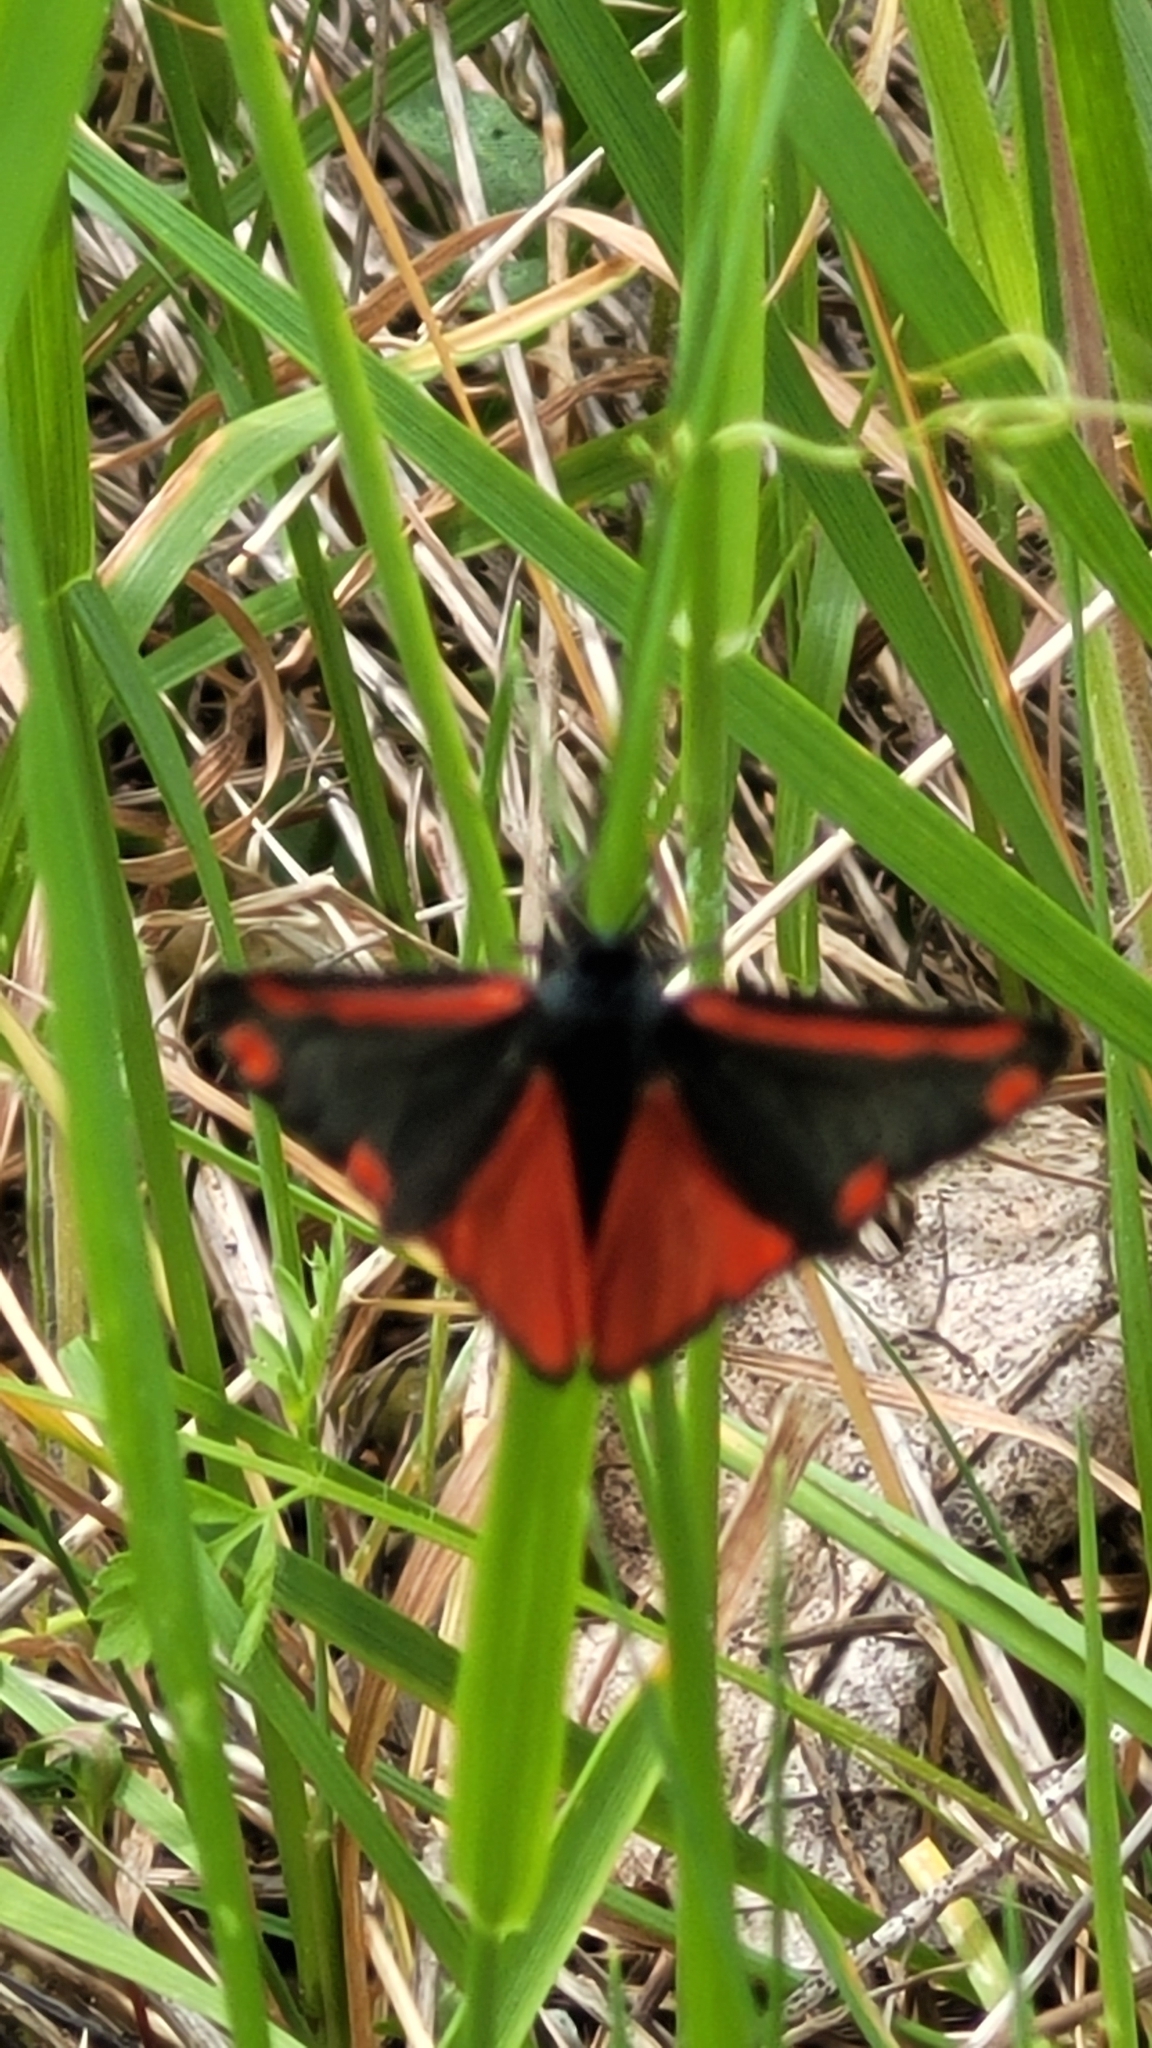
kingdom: Animalia
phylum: Arthropoda
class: Insecta
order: Lepidoptera
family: Erebidae
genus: Tyria
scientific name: Tyria jacobaeae
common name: Cinnabar
